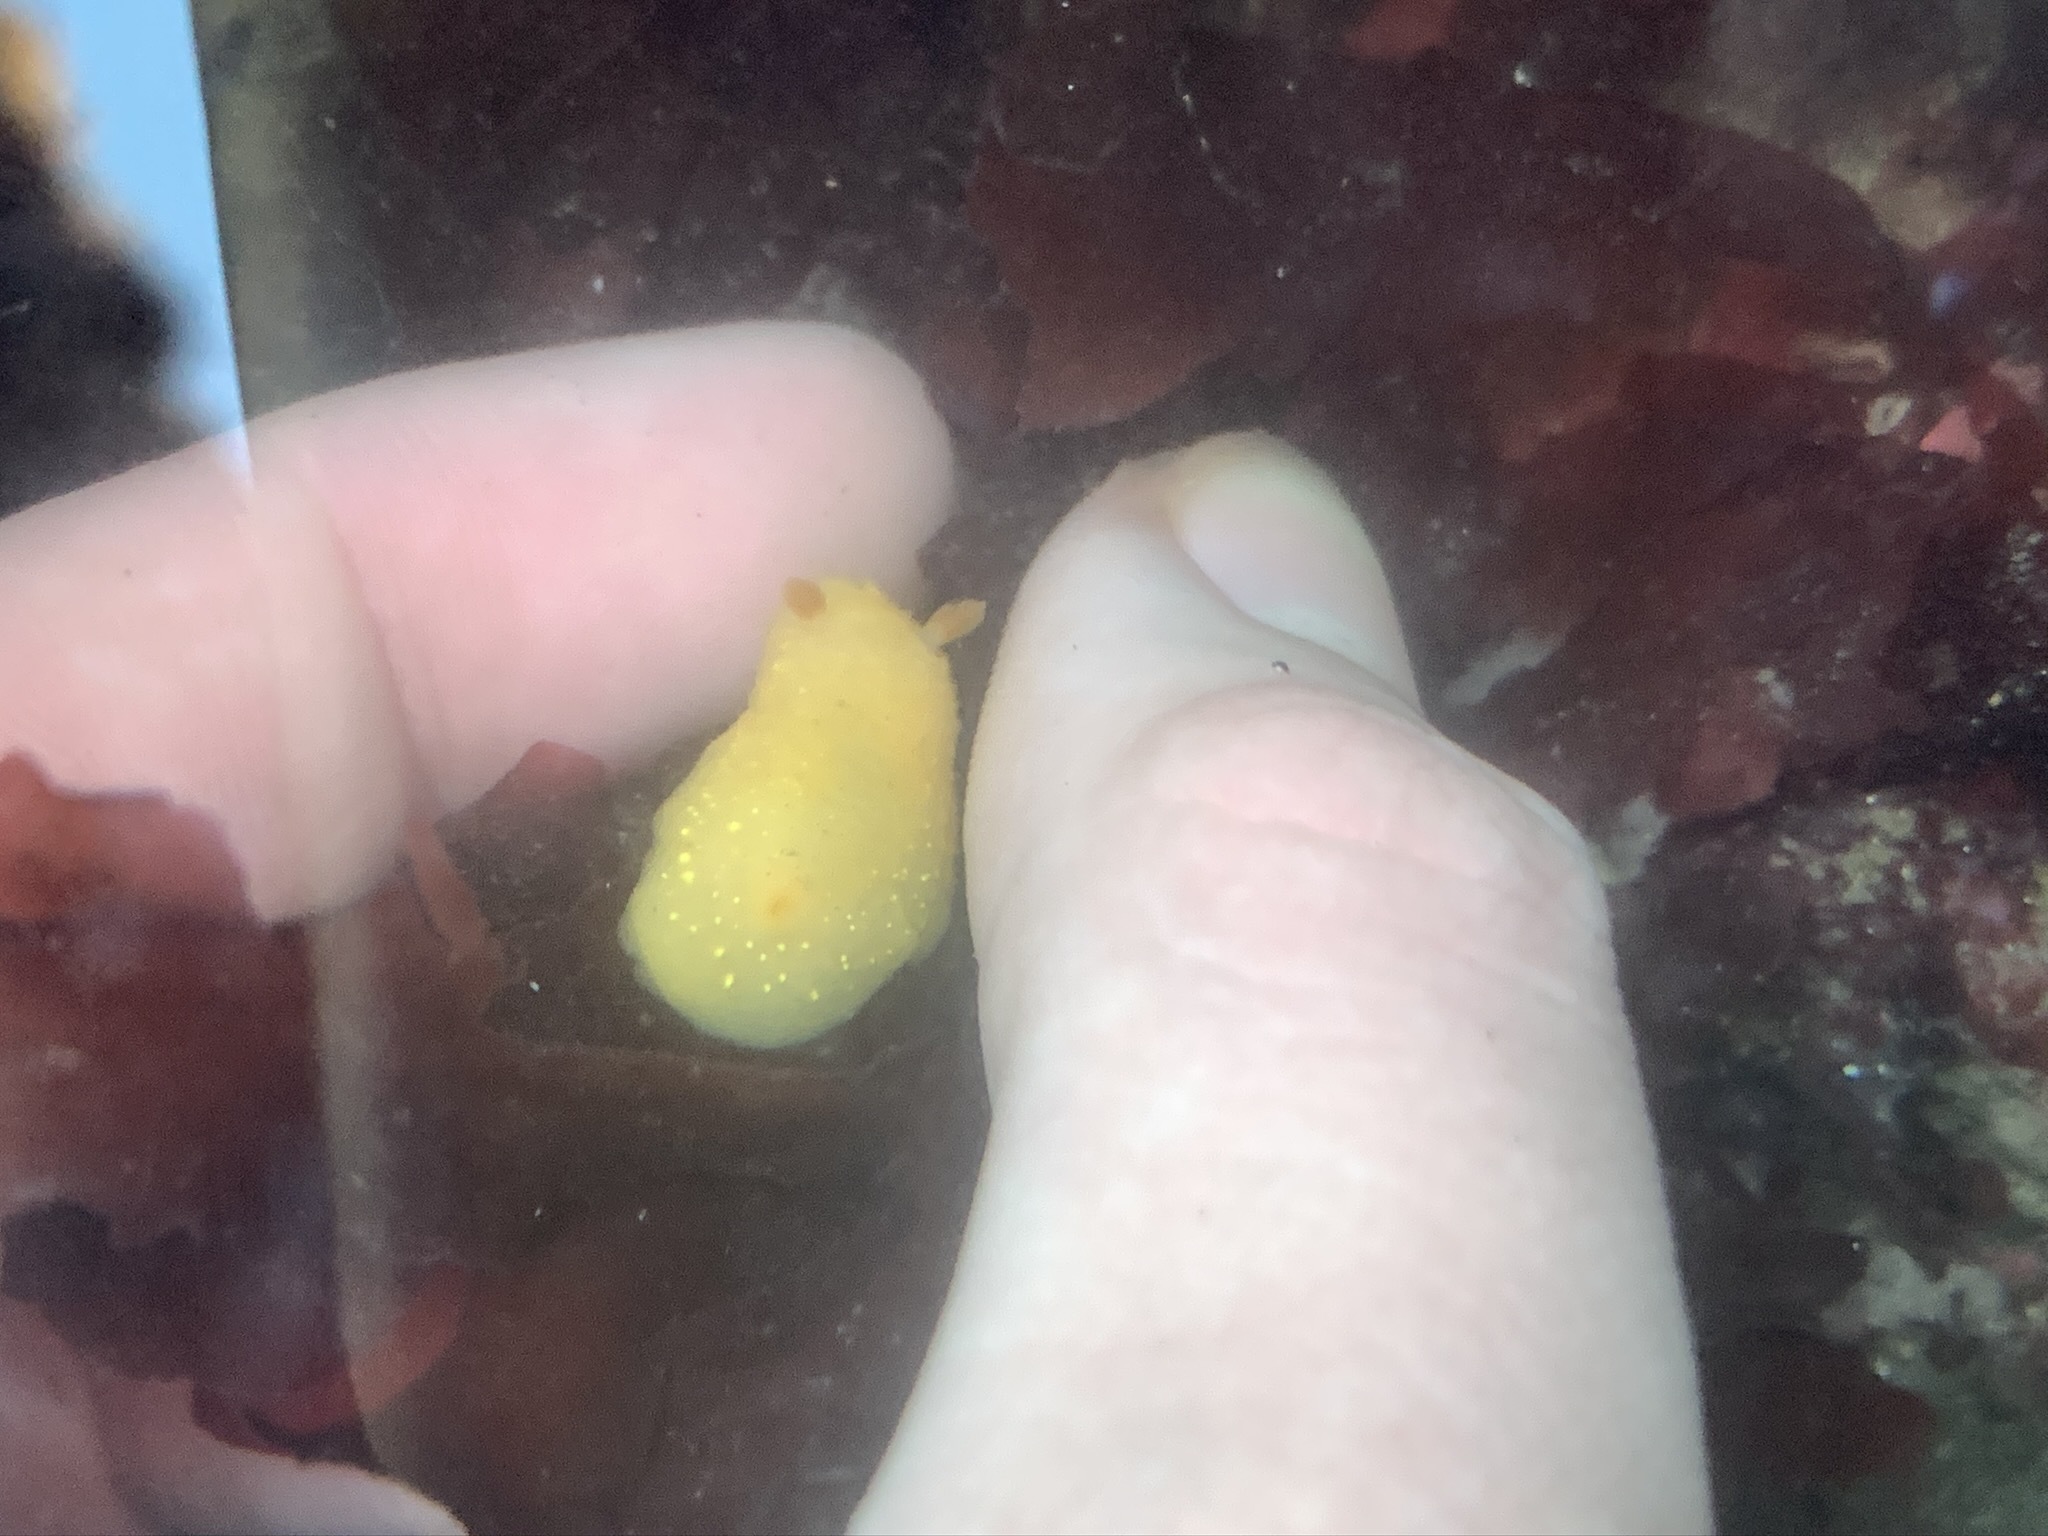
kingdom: Animalia
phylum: Mollusca
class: Gastropoda
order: Nudibranchia
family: Cadlinidae
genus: Cadlina
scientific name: Cadlina modesta
